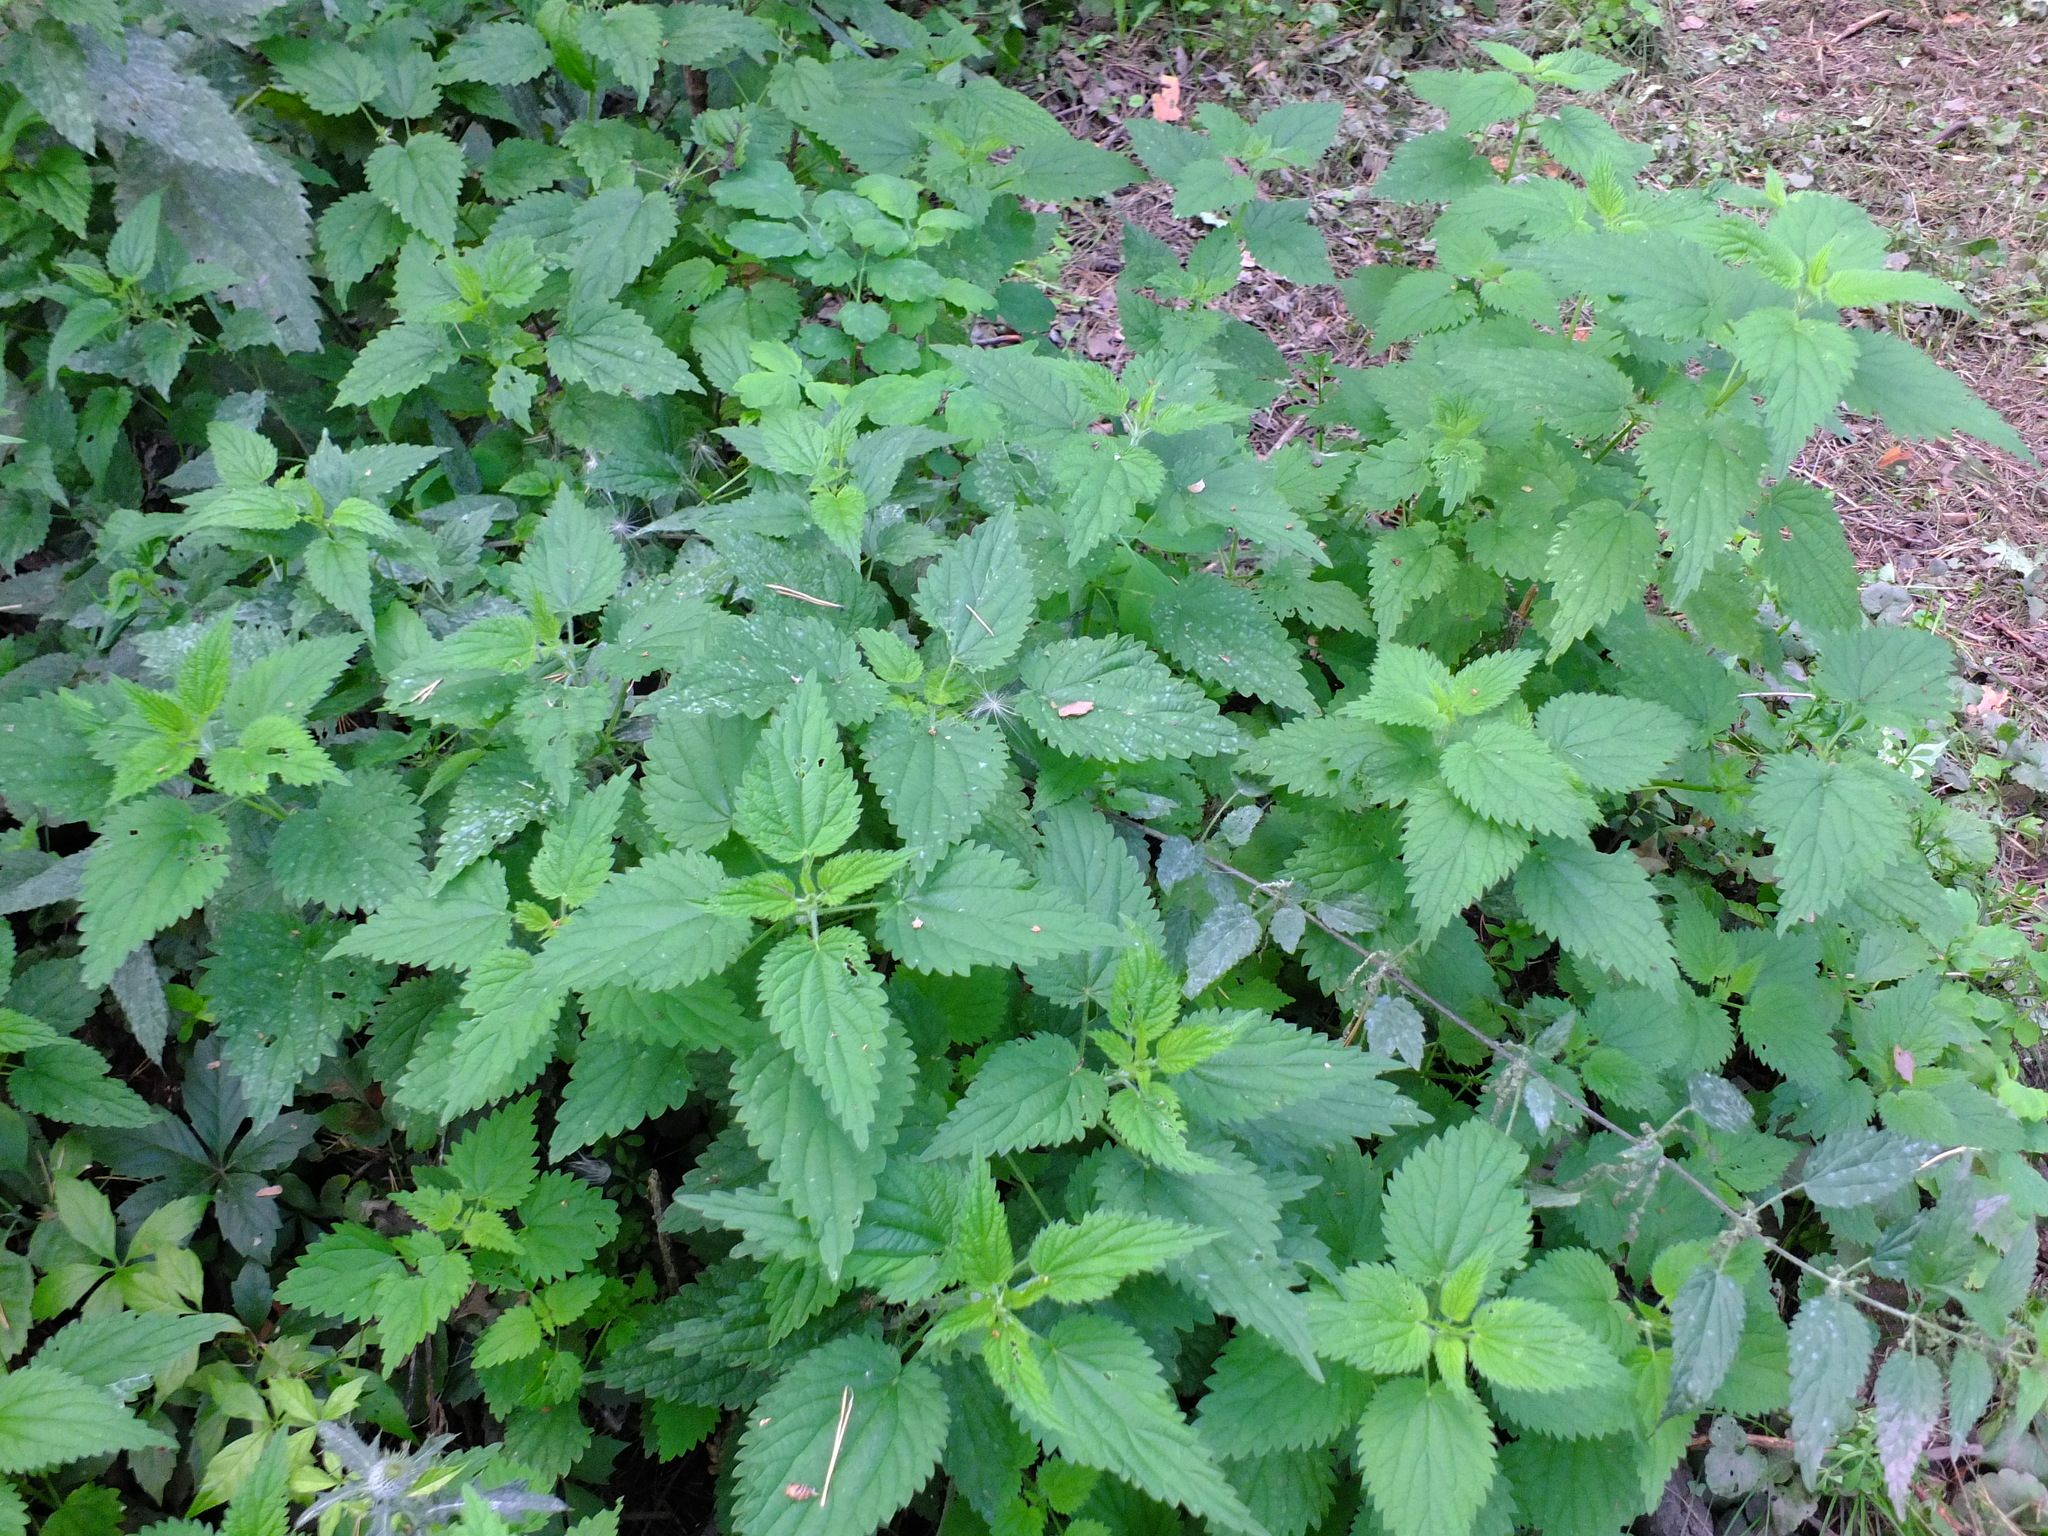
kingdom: Plantae
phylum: Tracheophyta
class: Magnoliopsida
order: Rosales
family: Urticaceae
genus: Urtica
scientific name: Urtica dioica
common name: Common nettle
